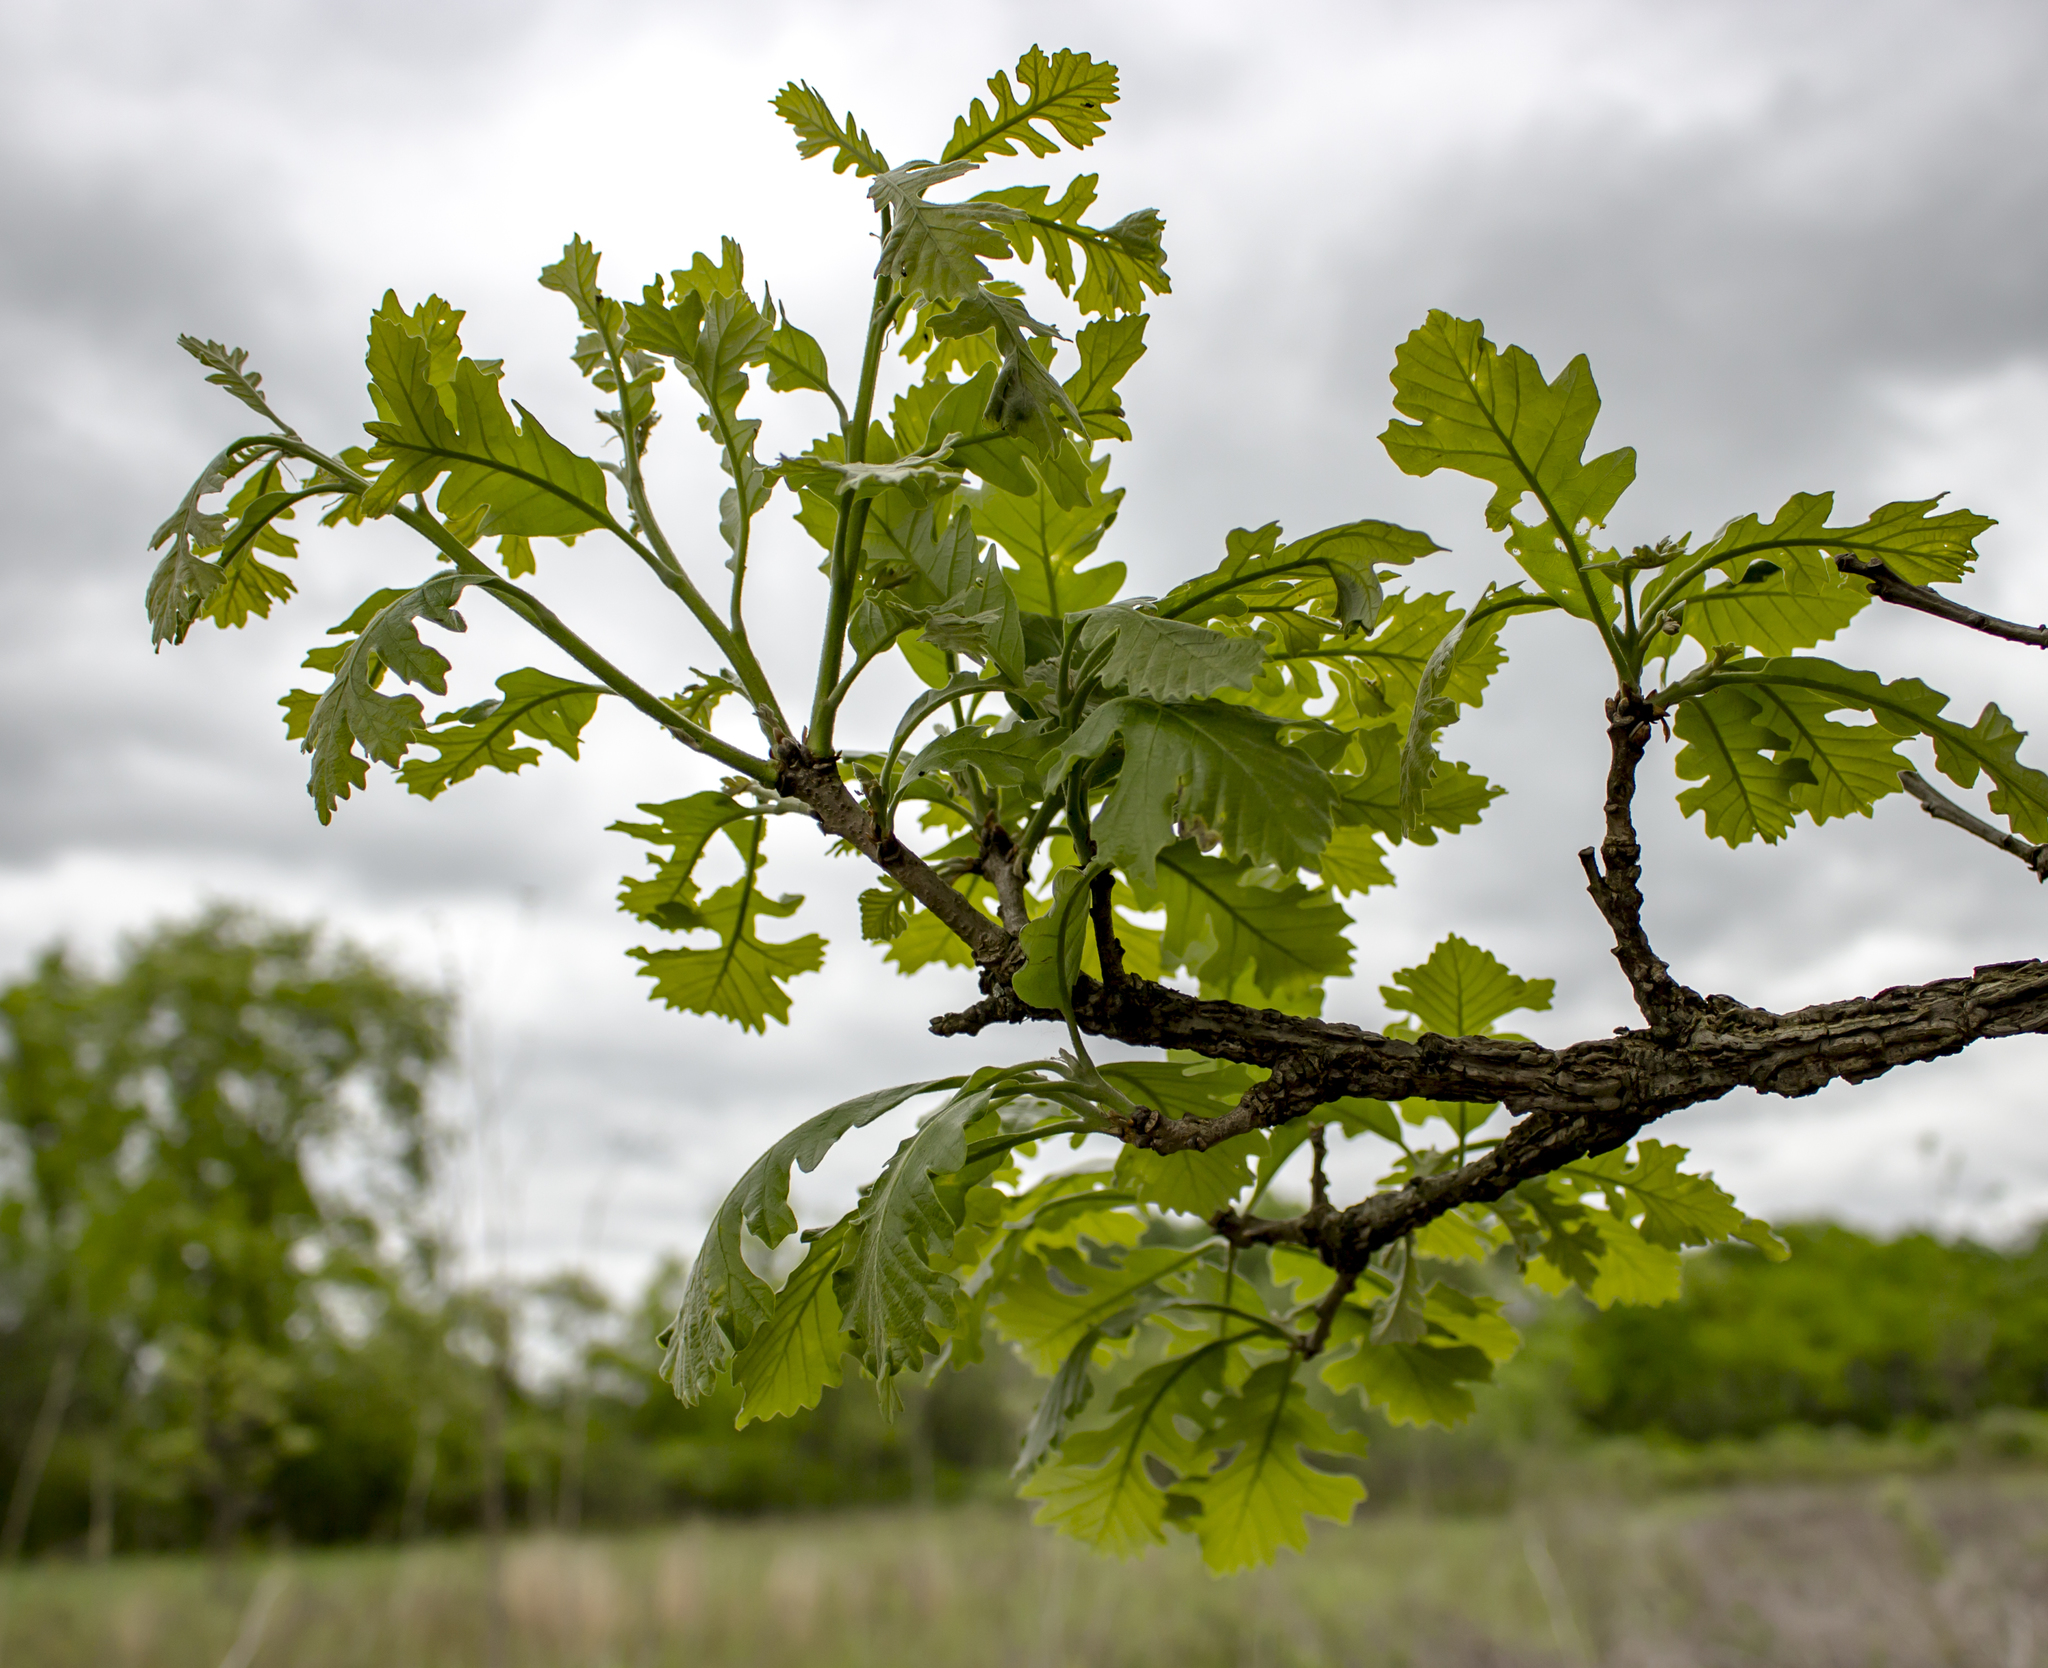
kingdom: Plantae
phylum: Tracheophyta
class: Magnoliopsida
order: Fagales
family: Fagaceae
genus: Quercus
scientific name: Quercus macrocarpa
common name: Bur oak
